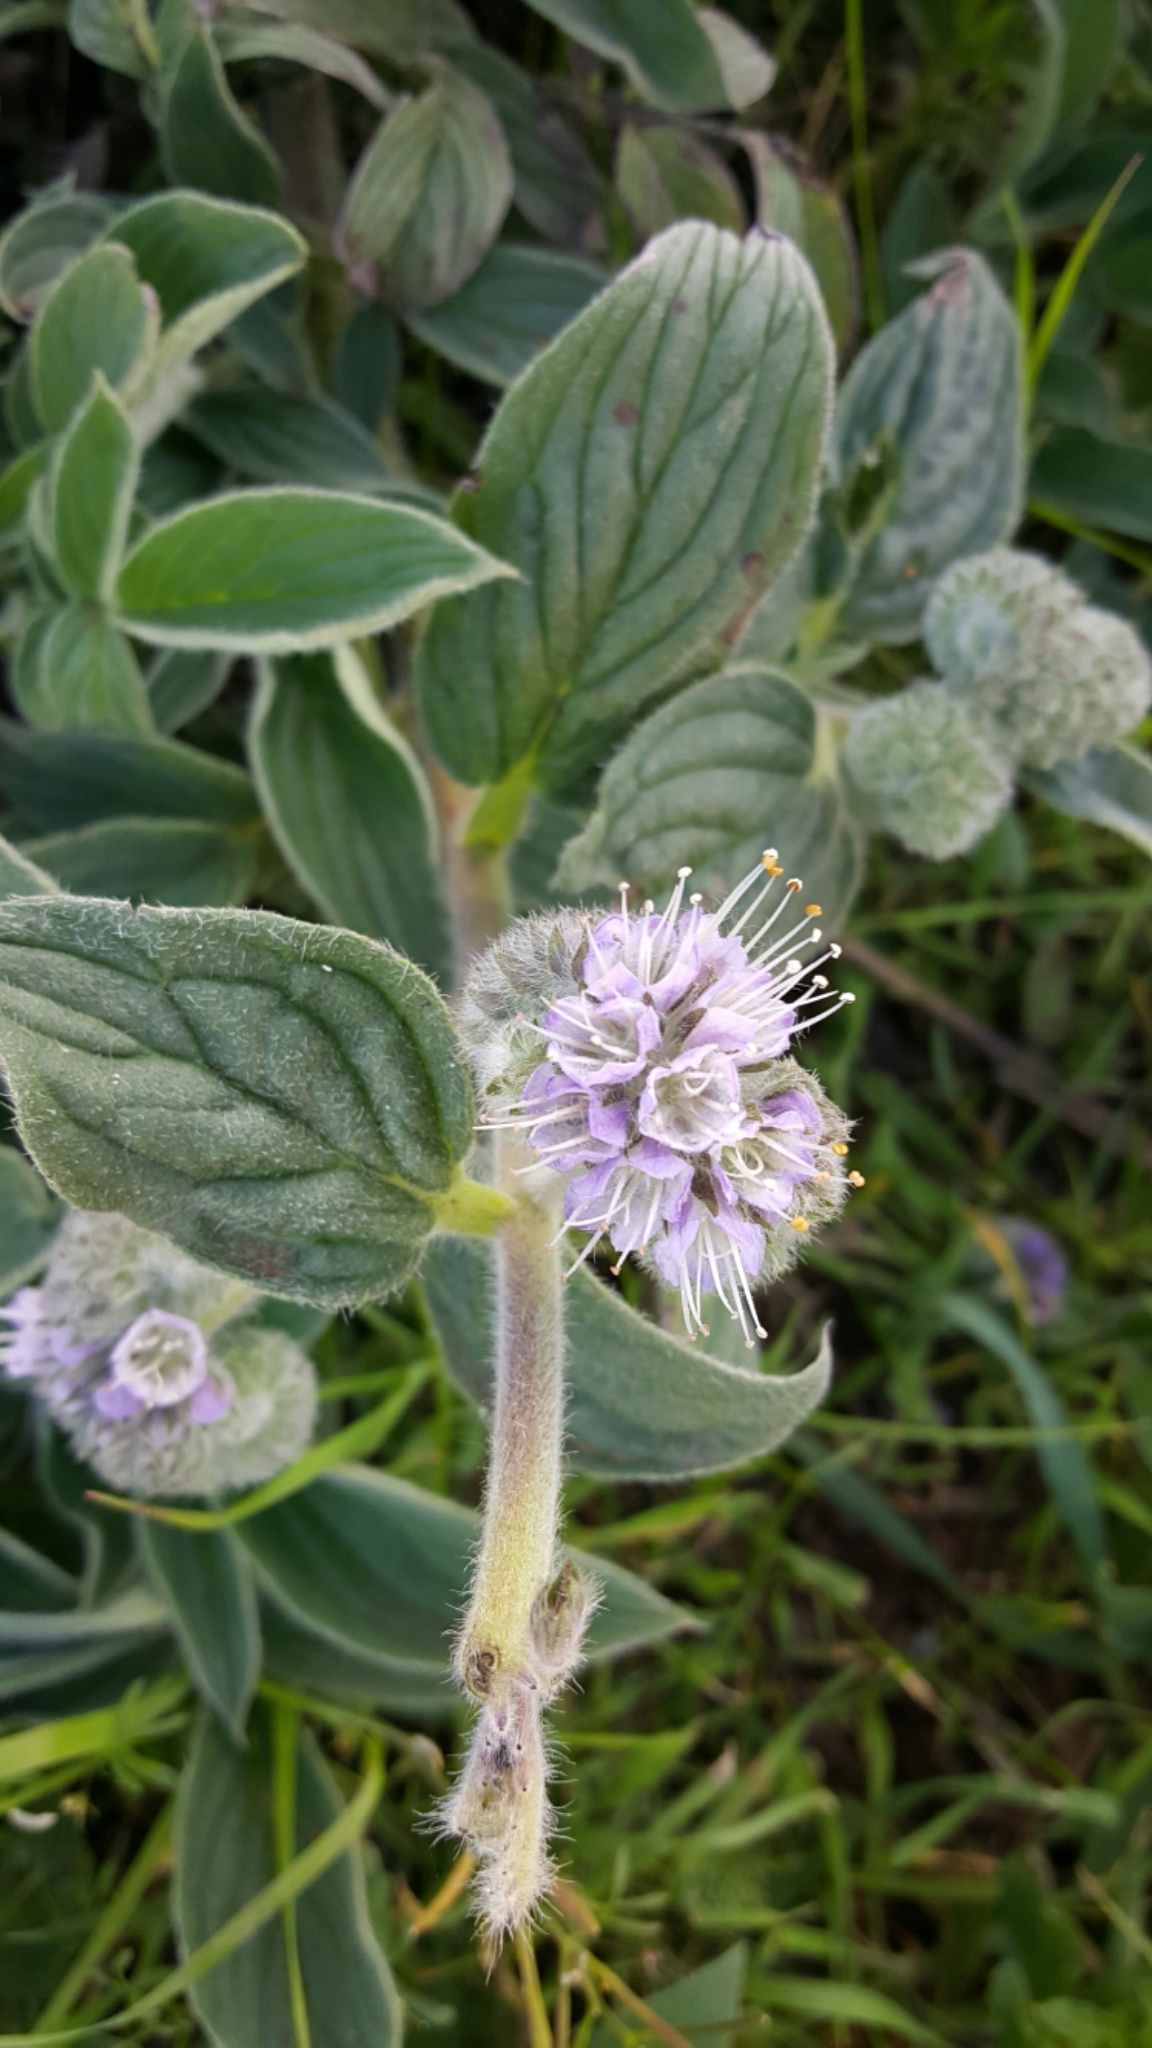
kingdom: Plantae
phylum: Tracheophyta
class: Magnoliopsida
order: Boraginales
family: Hydrophyllaceae
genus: Phacelia
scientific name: Phacelia californica
